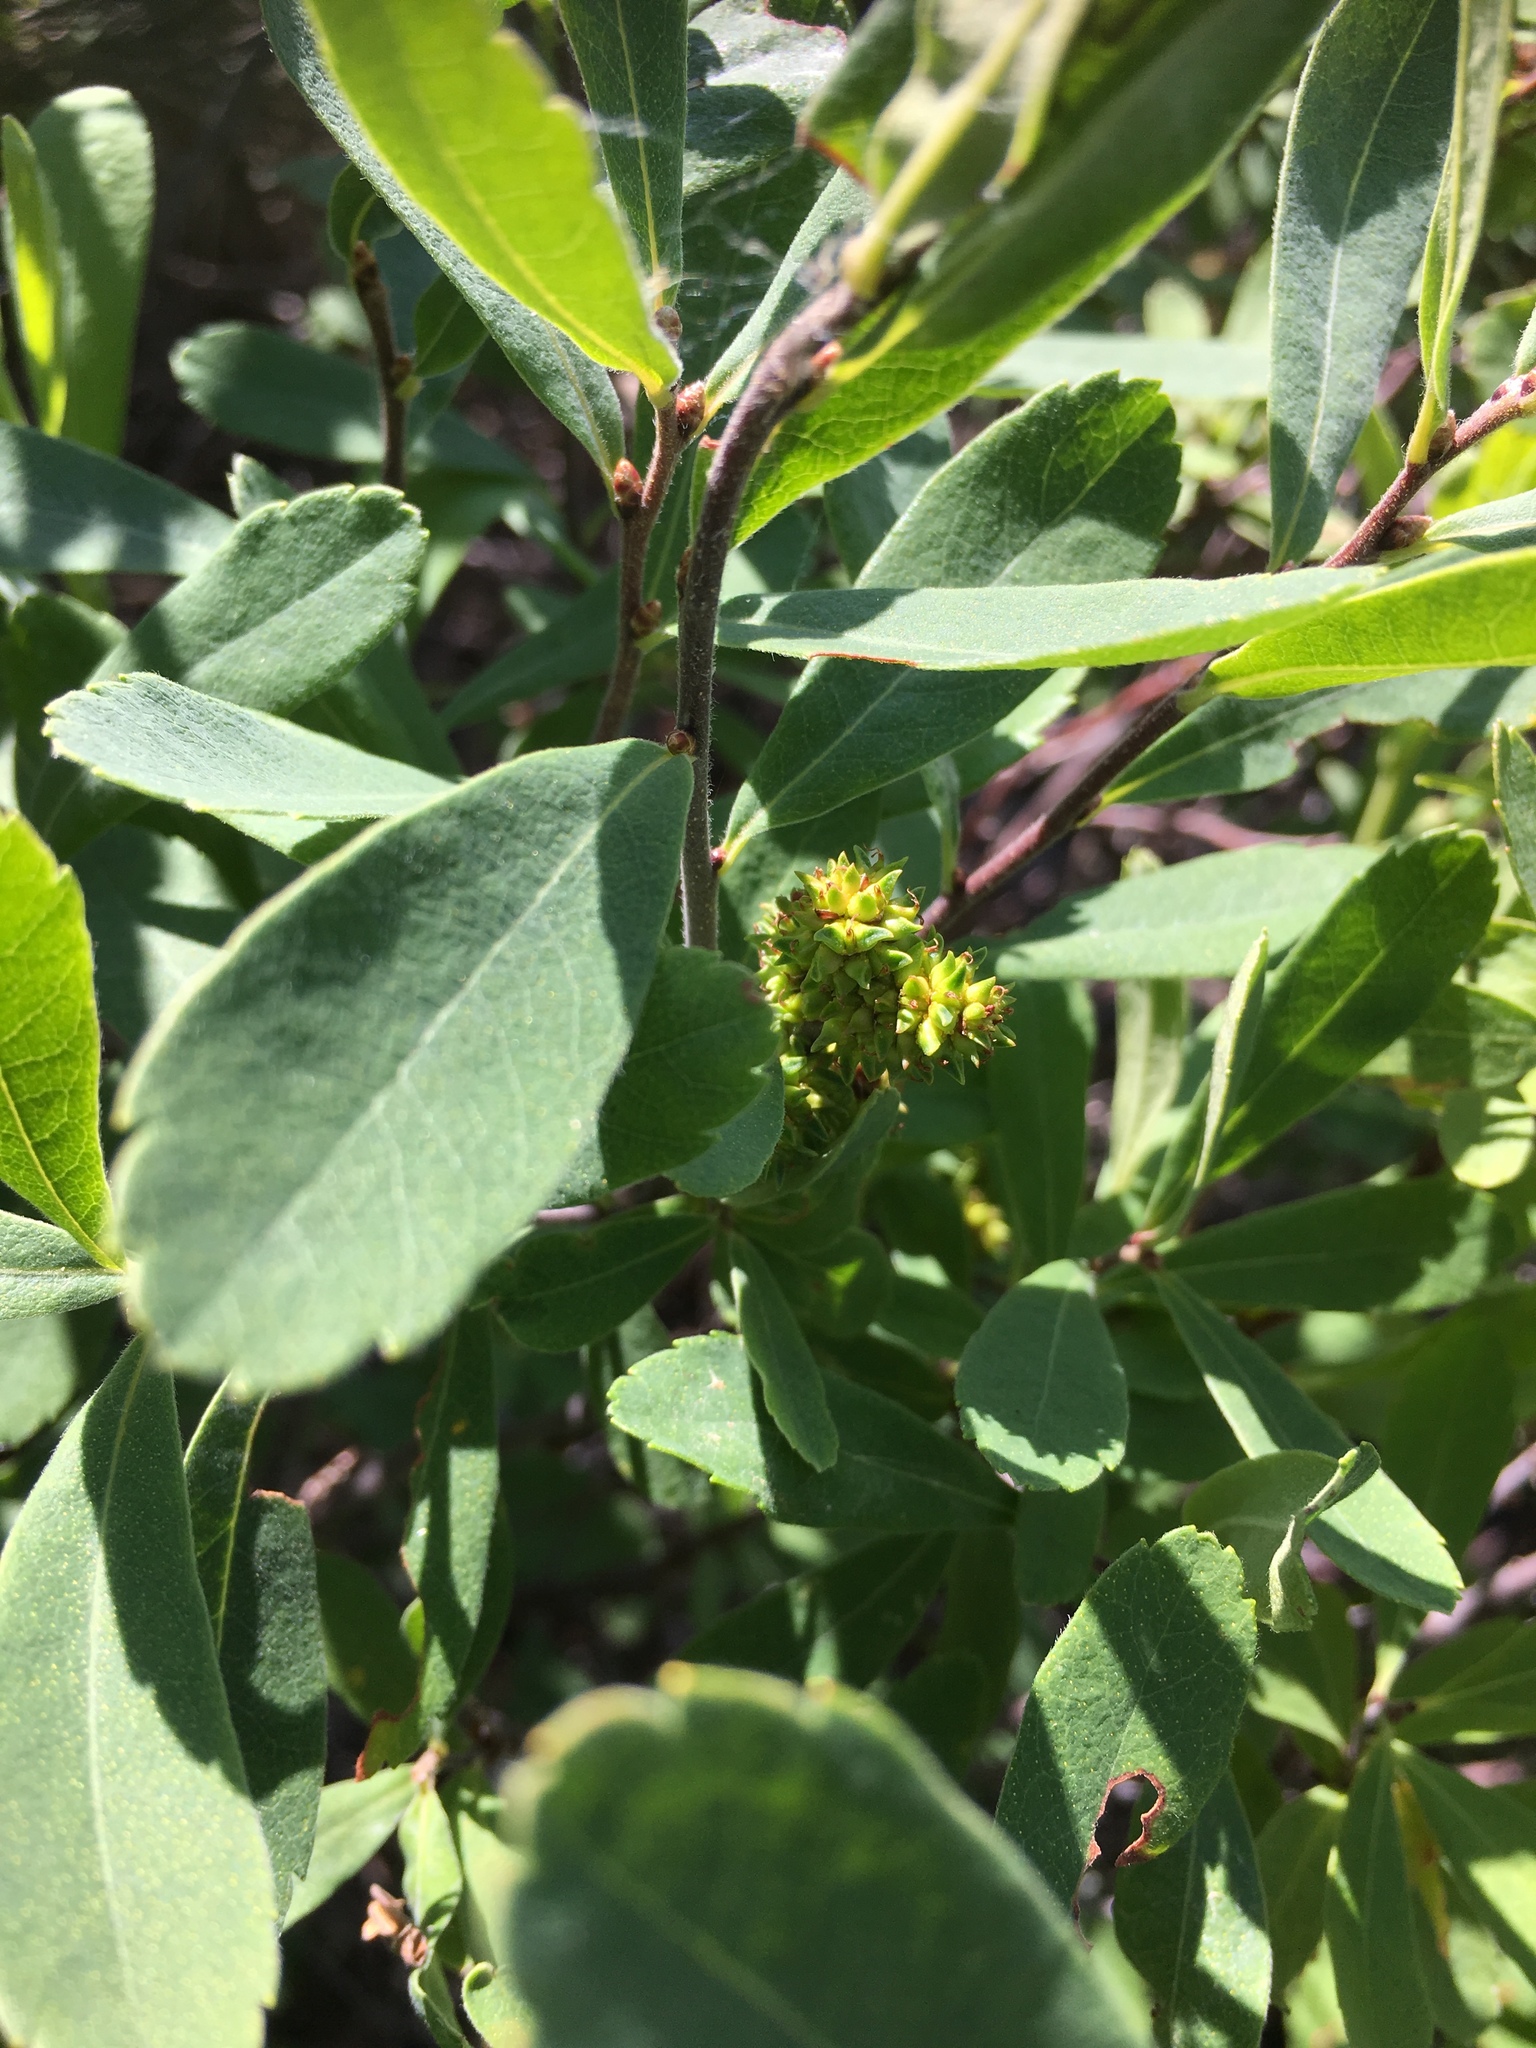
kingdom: Plantae
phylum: Tracheophyta
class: Magnoliopsida
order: Fagales
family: Myricaceae
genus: Myrica
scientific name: Myrica gale
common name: Sweet gale
